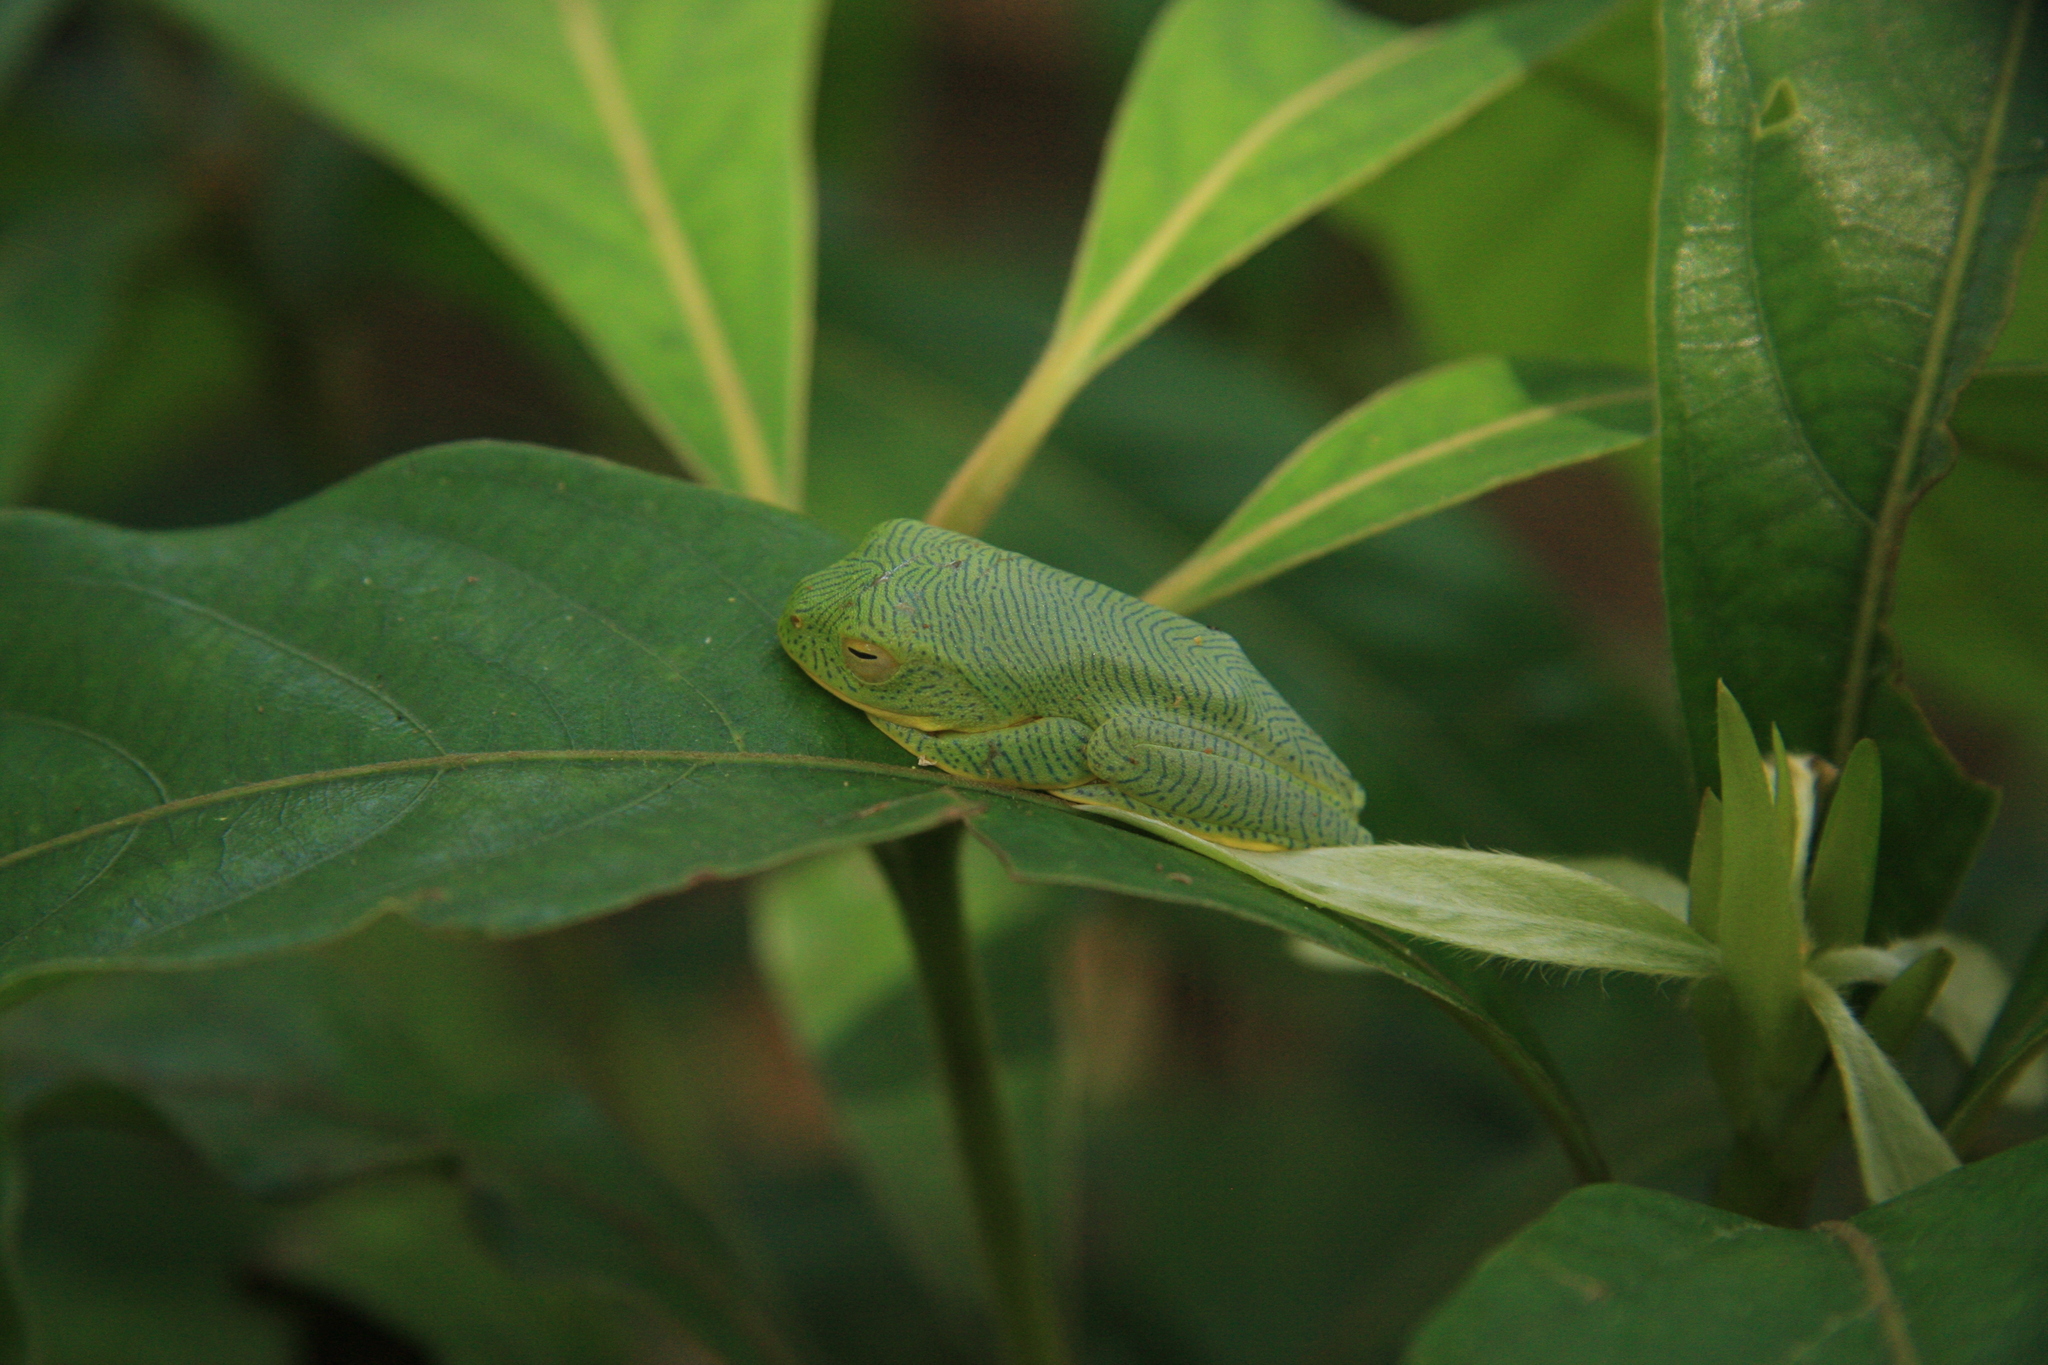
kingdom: Animalia
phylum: Chordata
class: Amphibia
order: Anura
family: Rhacophoridae
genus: Rhacophorus
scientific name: Rhacophorus pseudomalabaricus
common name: Anaimalai flying frog
